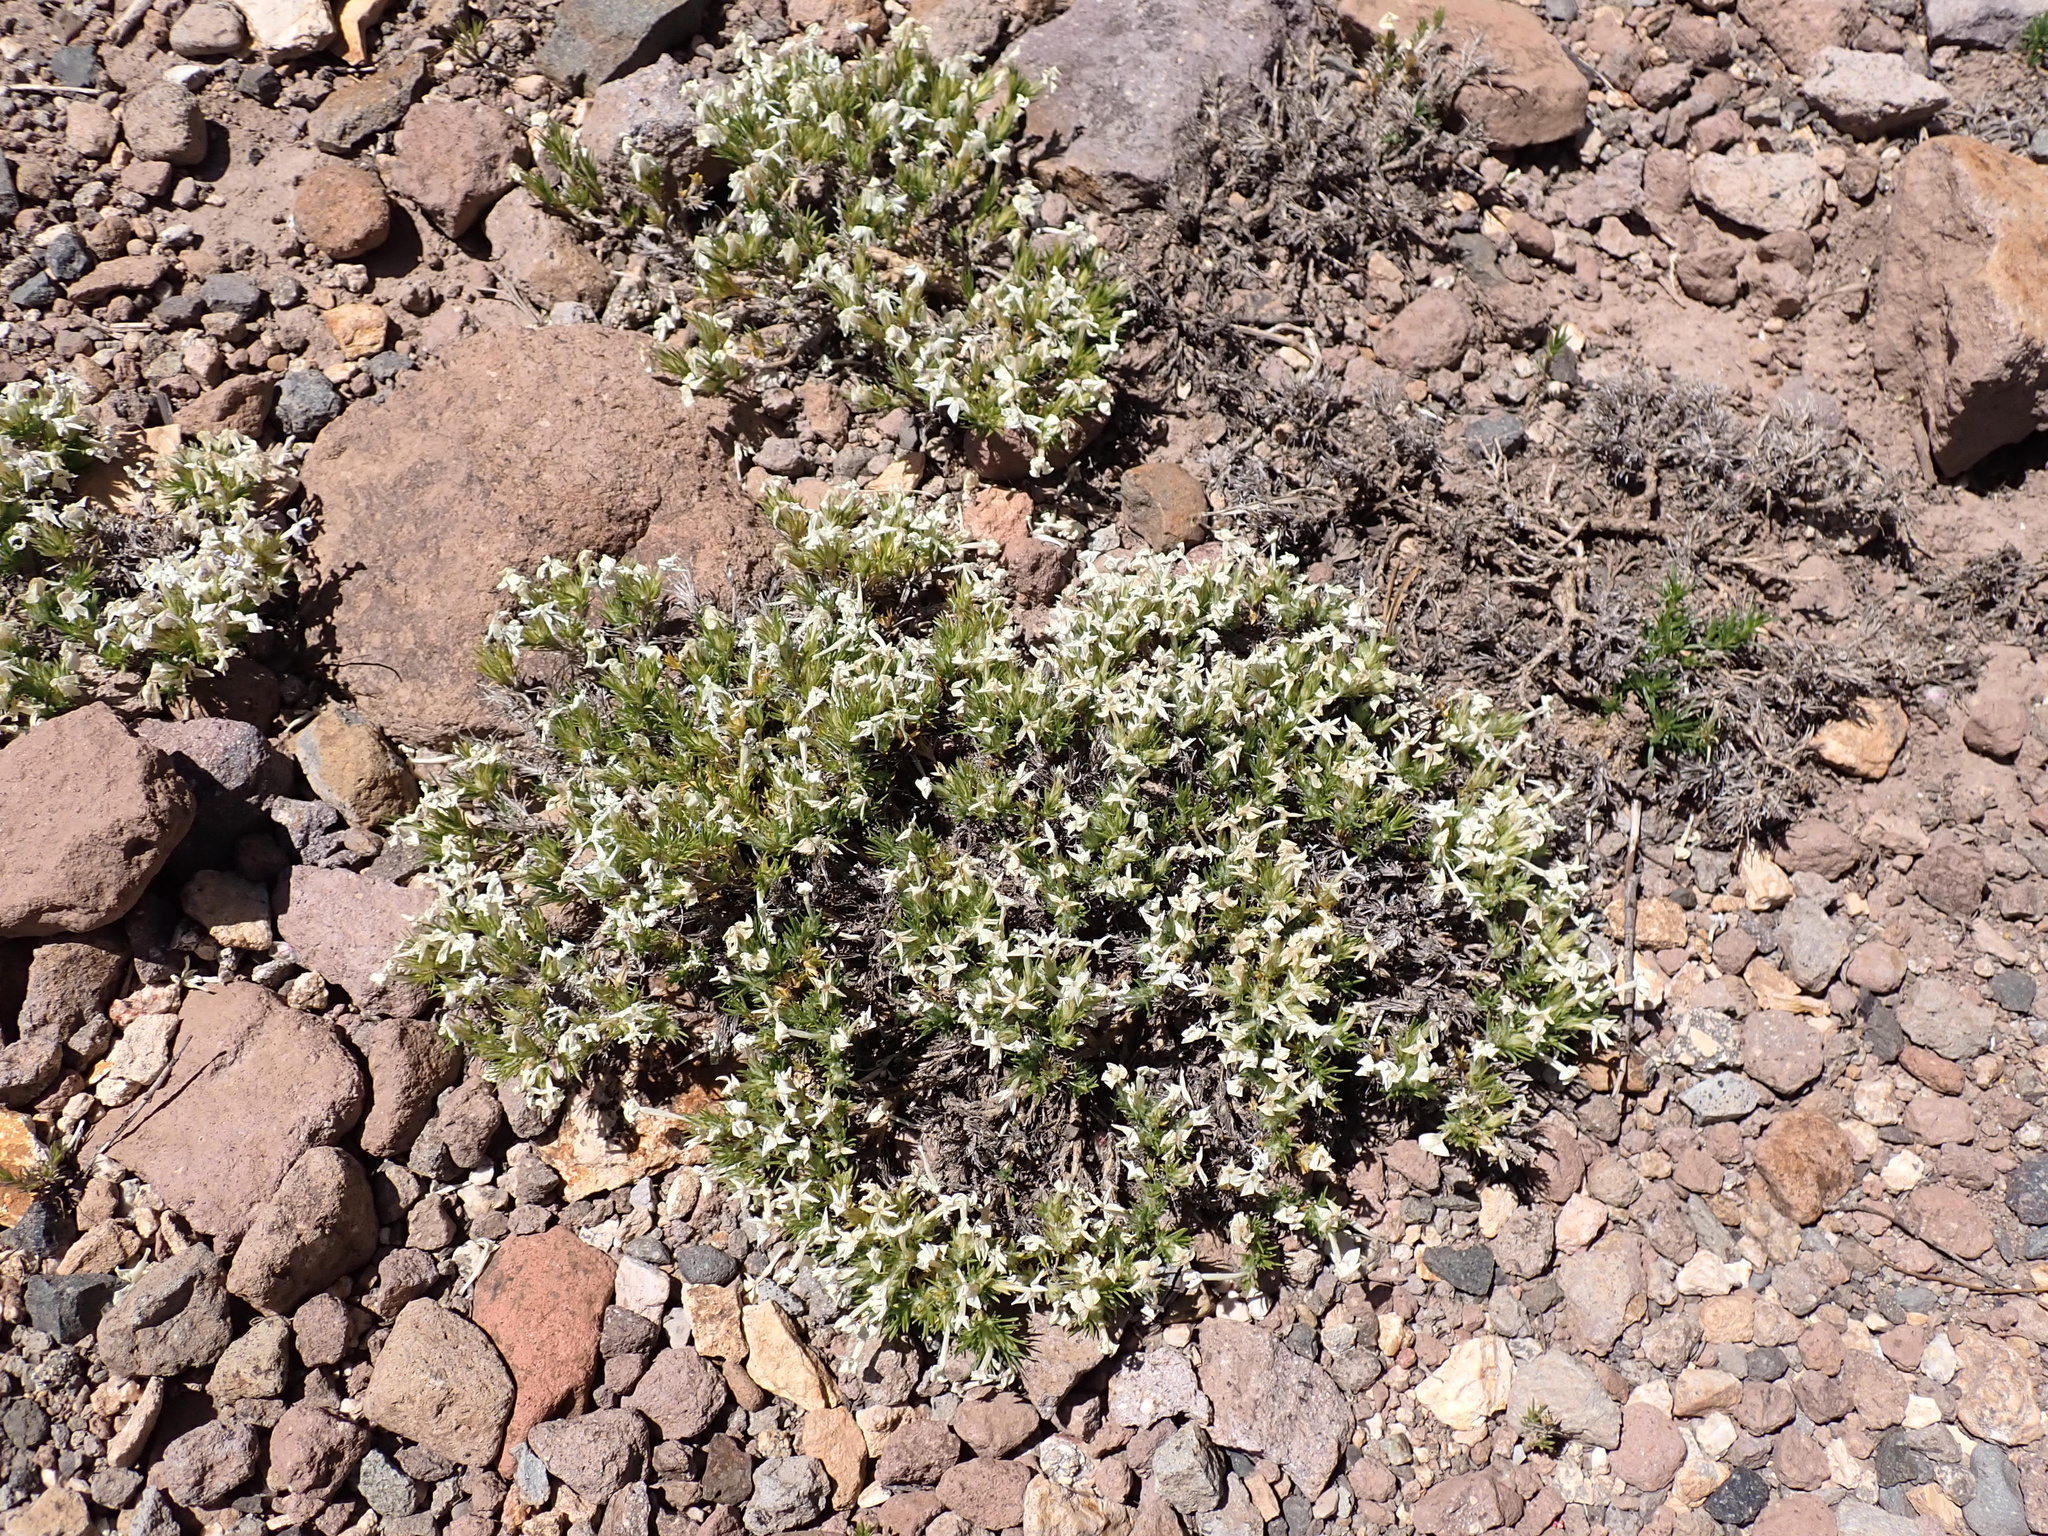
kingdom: Plantae
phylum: Tracheophyta
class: Magnoliopsida
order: Ericales
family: Polemoniaceae
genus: Phlox
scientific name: Phlox hoodii
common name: Moss phlox
